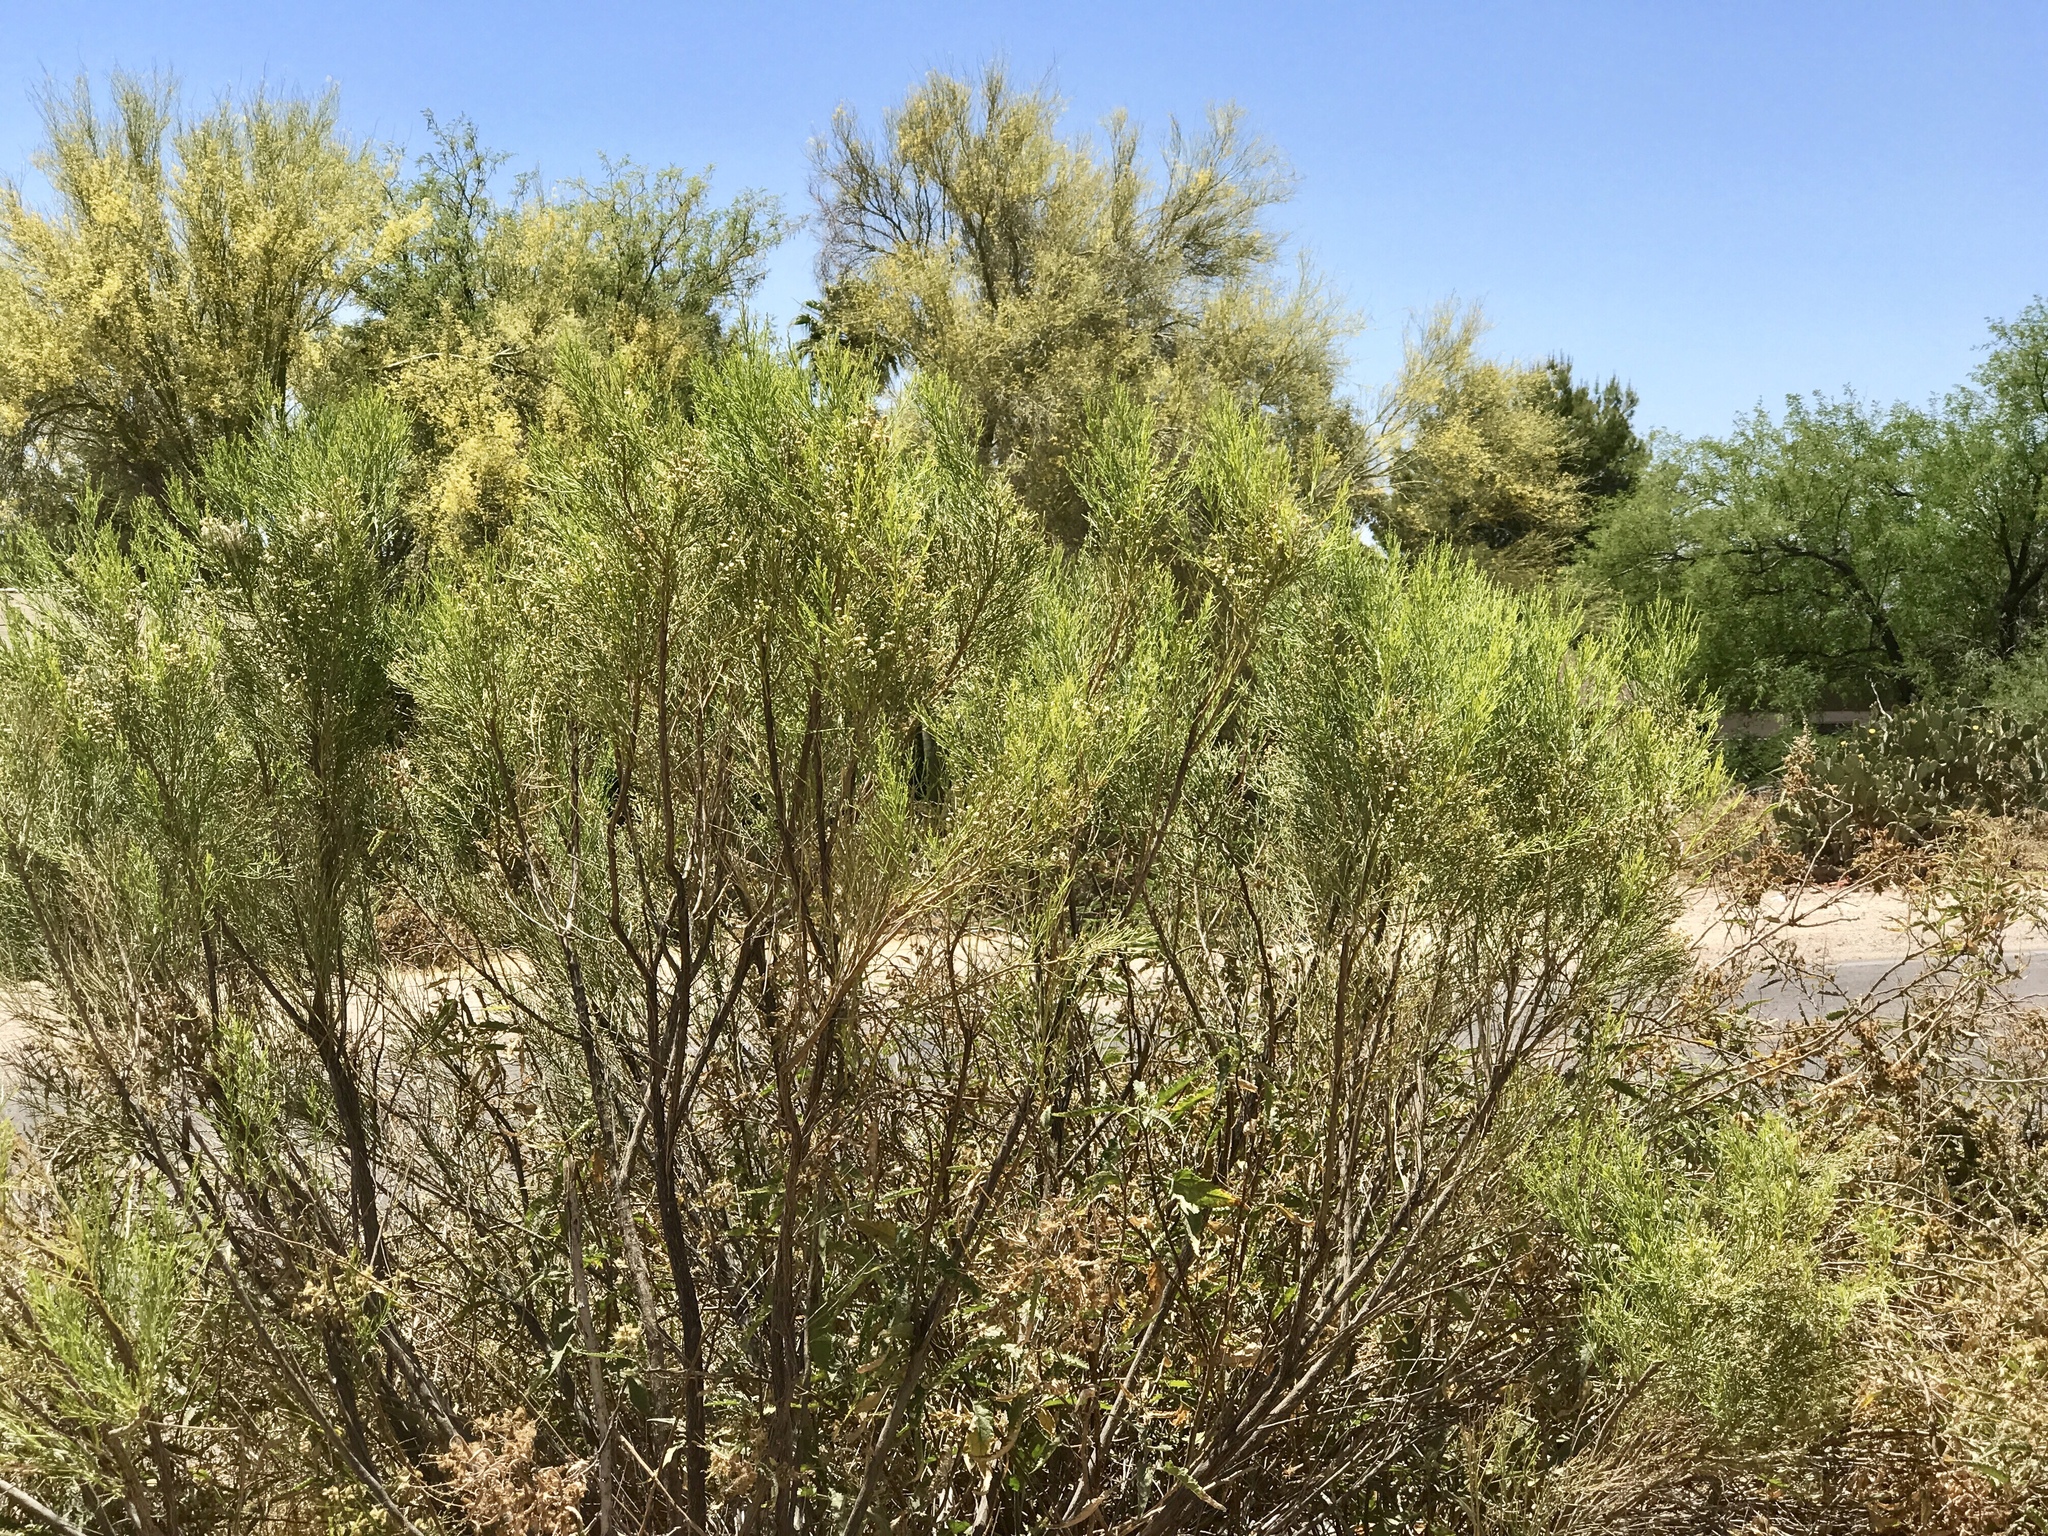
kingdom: Plantae
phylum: Tracheophyta
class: Magnoliopsida
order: Asterales
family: Asteraceae
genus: Baccharis
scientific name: Baccharis sarothroides
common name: Desert-broom
